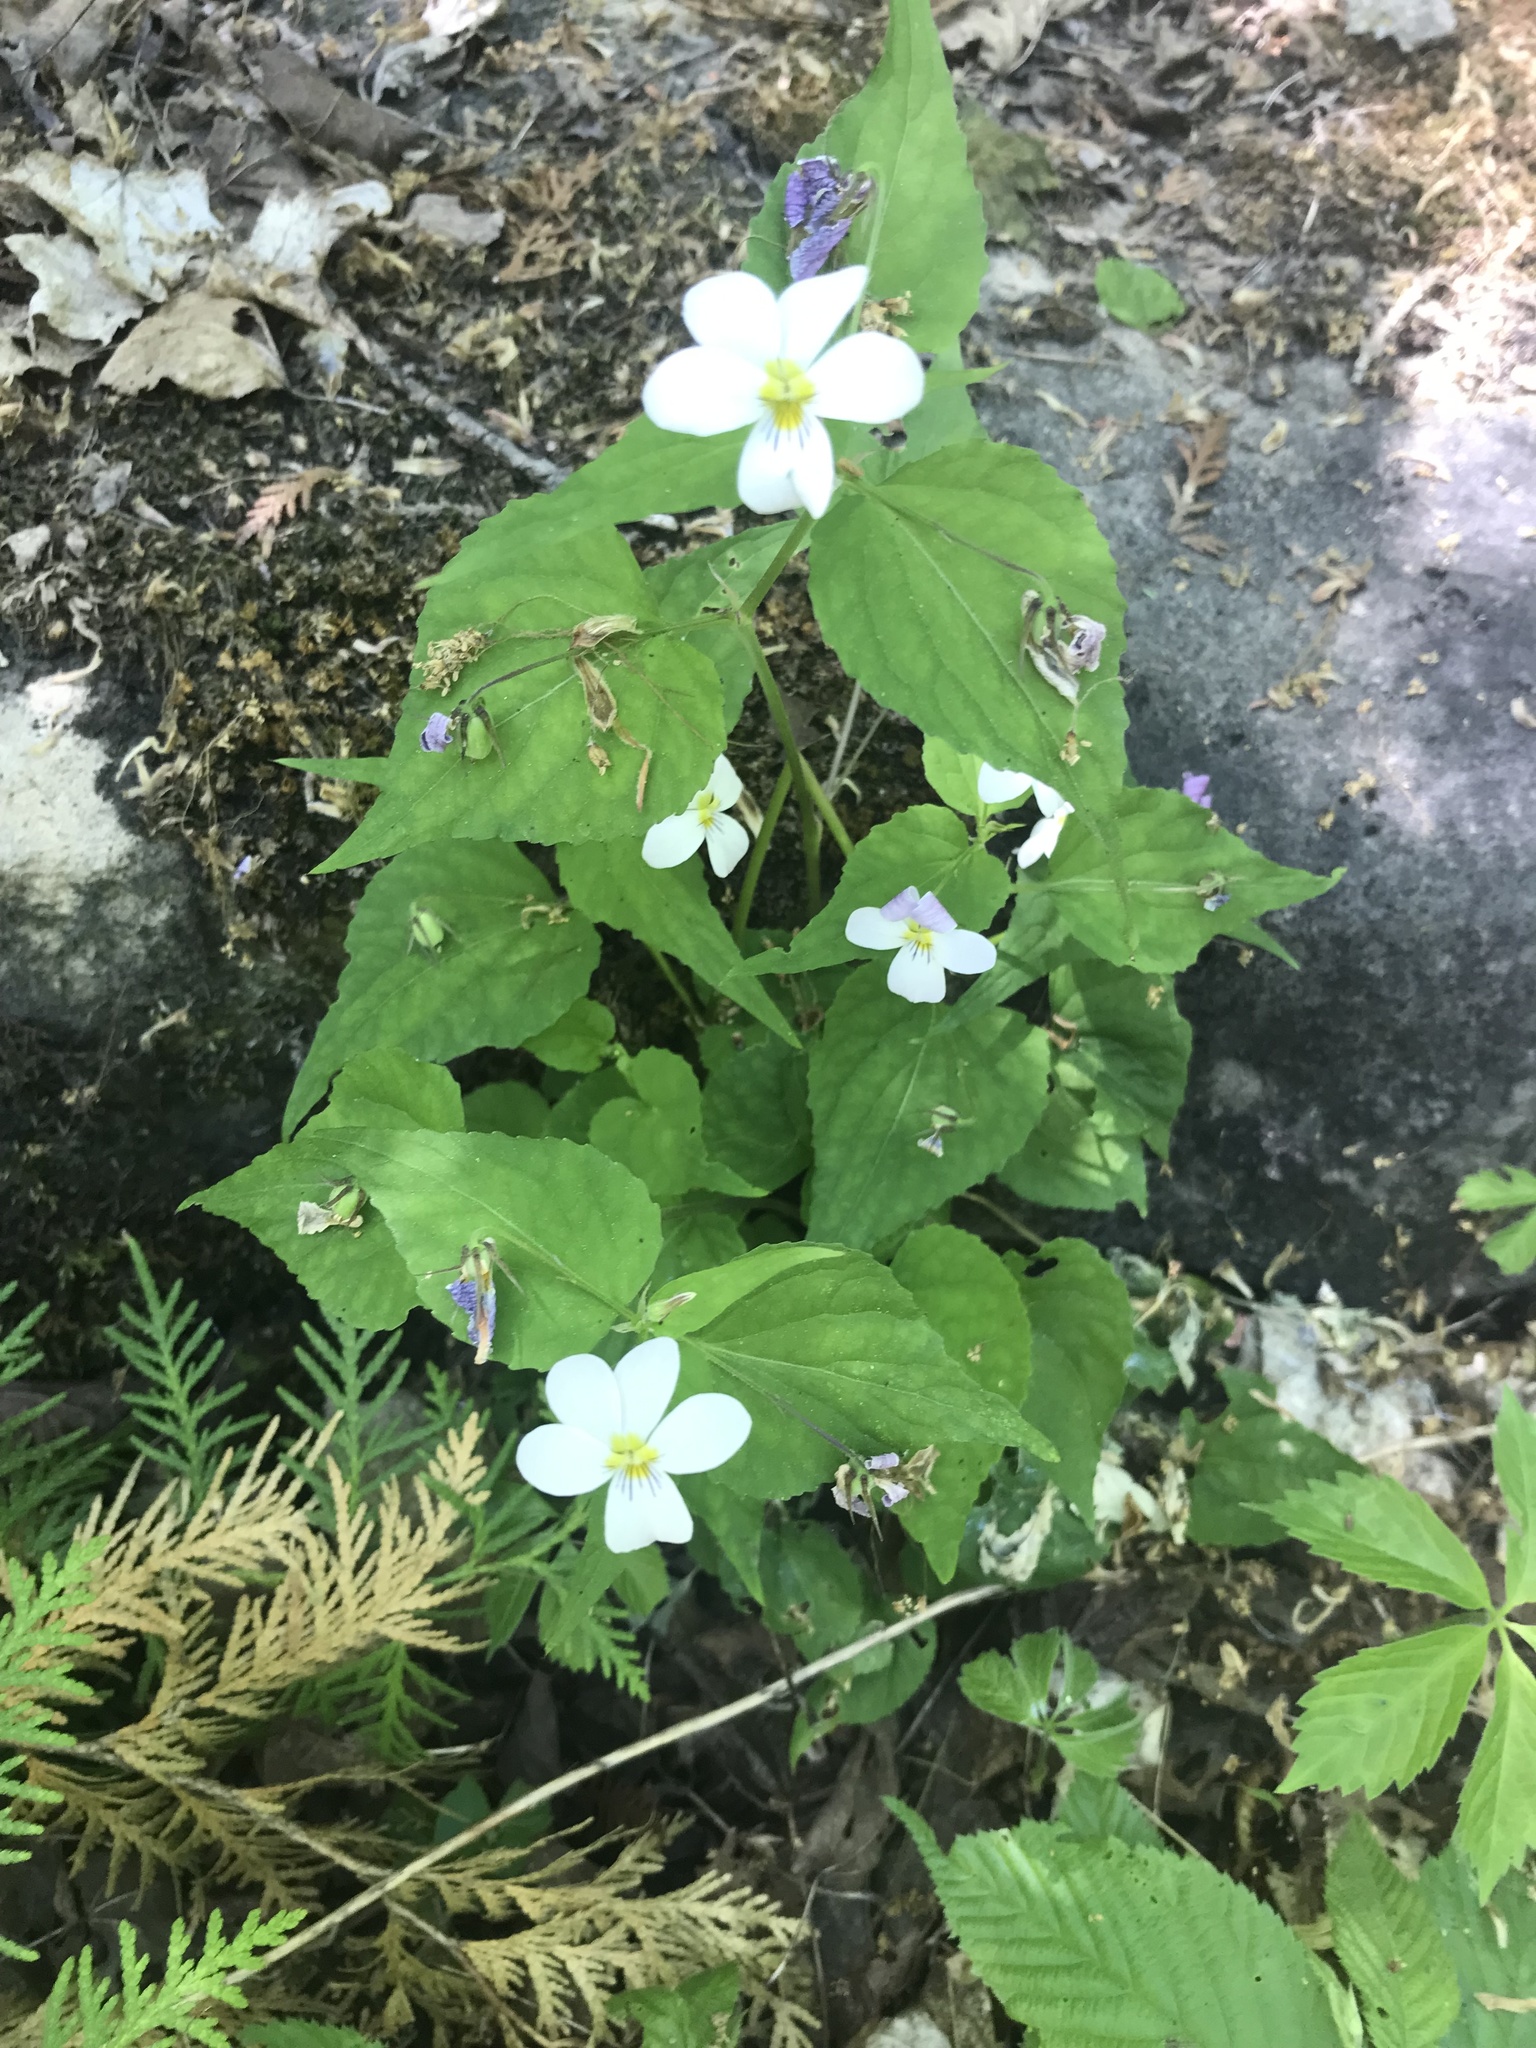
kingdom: Plantae
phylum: Tracheophyta
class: Magnoliopsida
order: Malpighiales
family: Violaceae
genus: Viola
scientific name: Viola canadensis
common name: Canada violet
